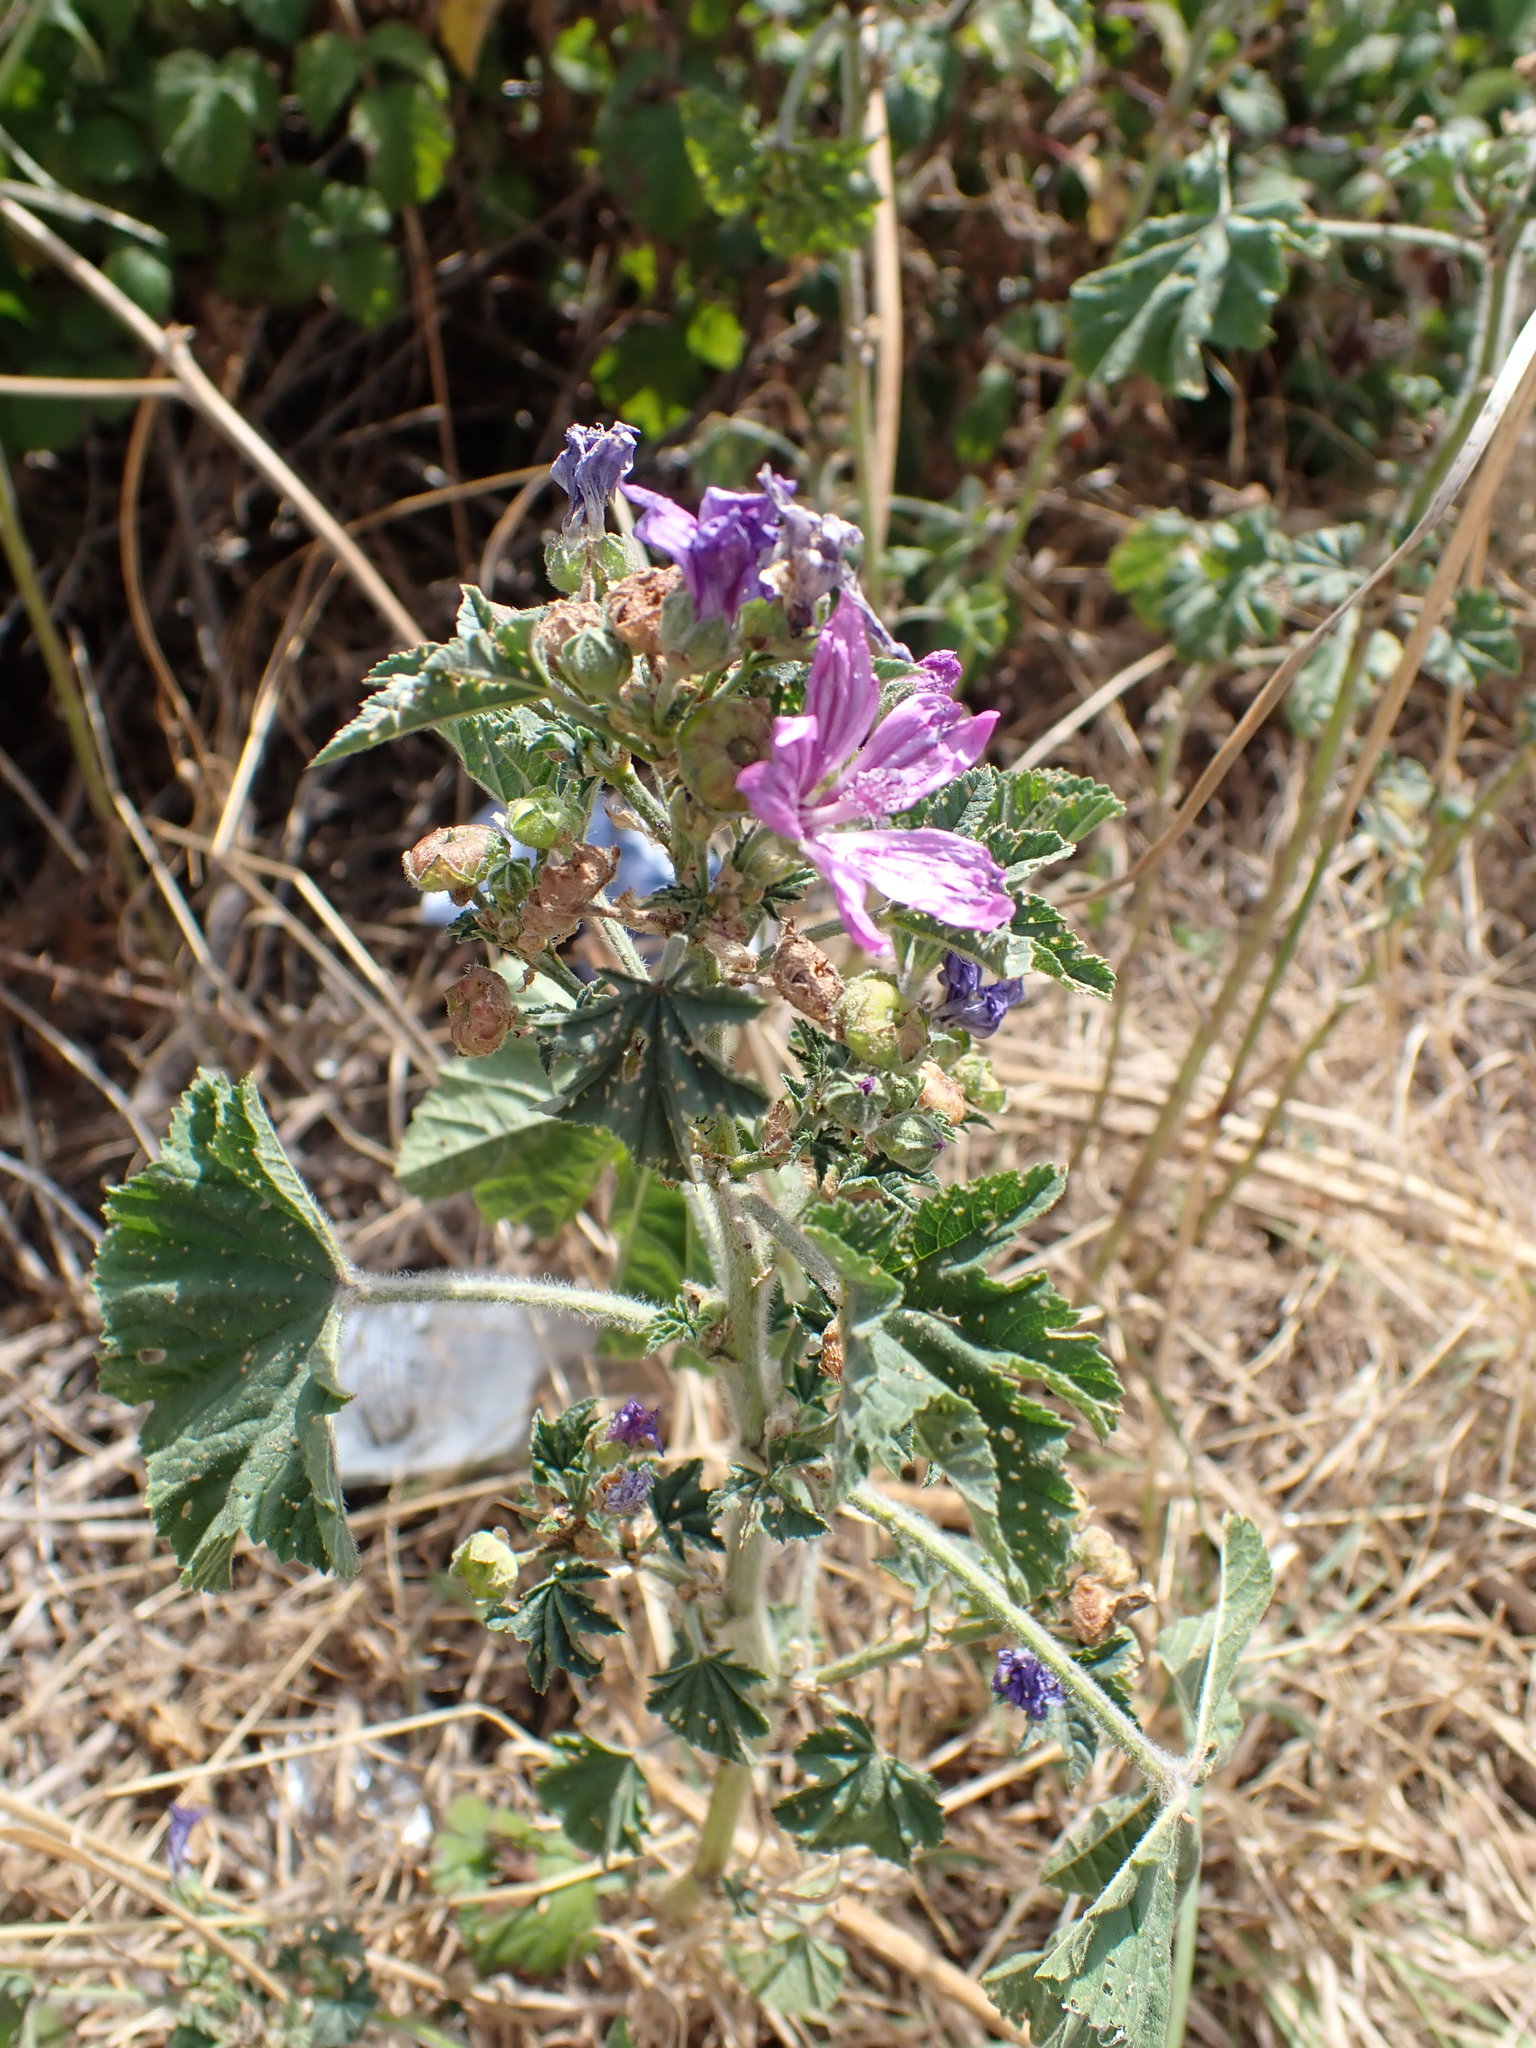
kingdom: Plantae
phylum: Tracheophyta
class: Magnoliopsida
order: Malvales
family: Malvaceae
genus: Malva
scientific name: Malva sylvestris
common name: Common mallow
